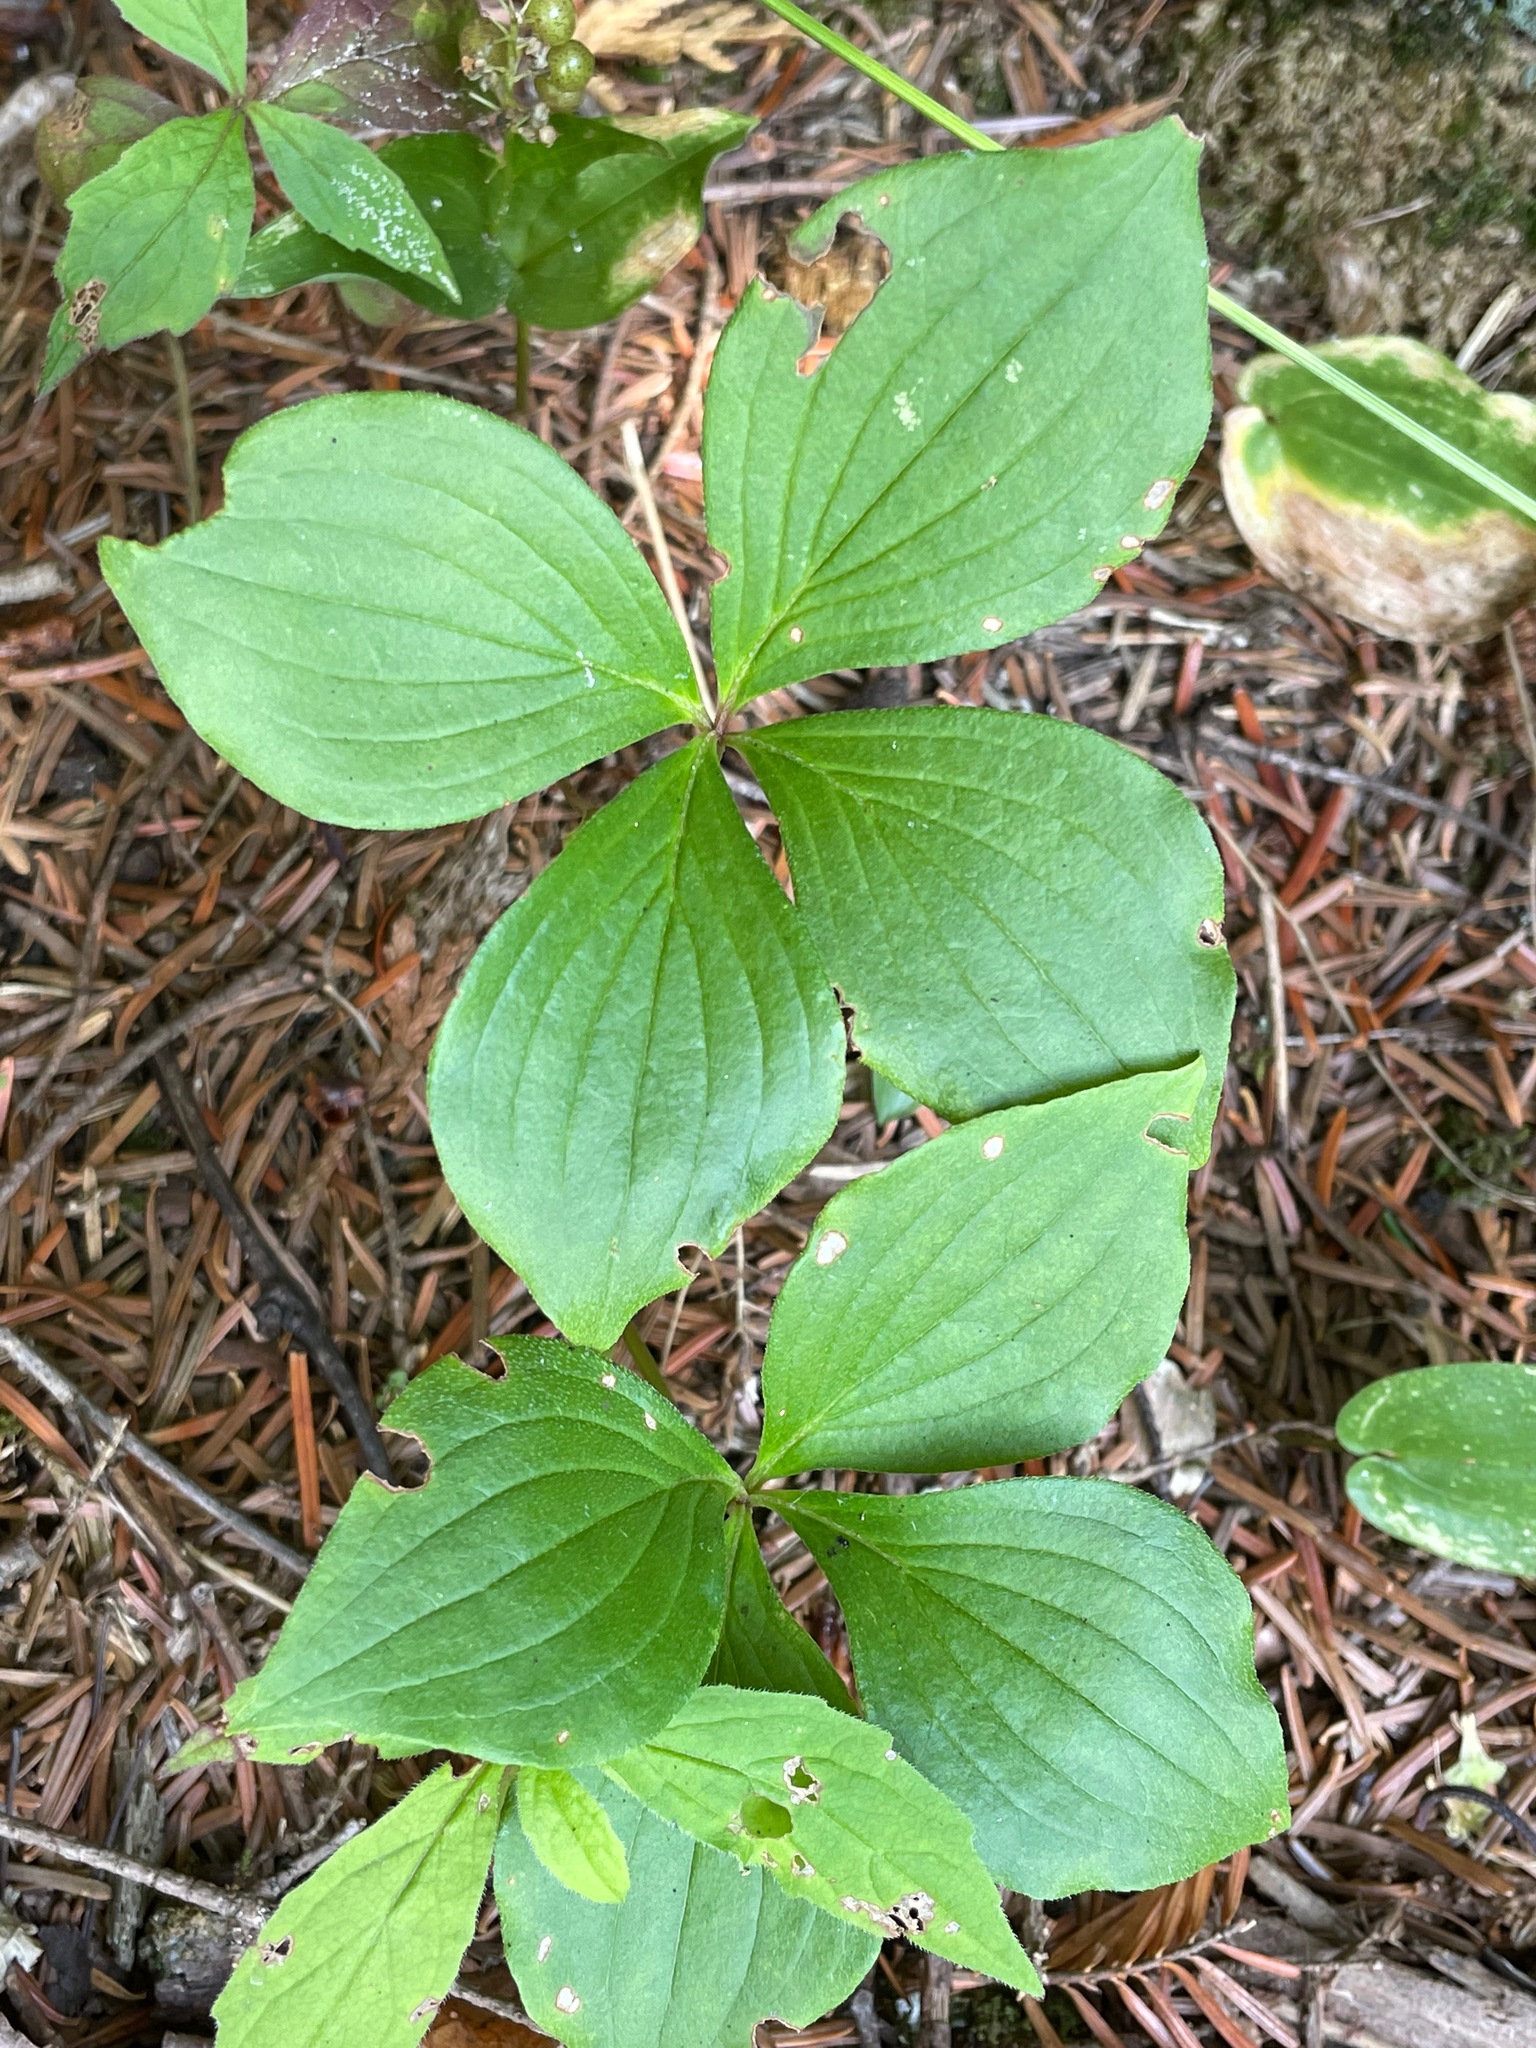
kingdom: Plantae
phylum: Tracheophyta
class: Magnoliopsida
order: Cornales
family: Cornaceae
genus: Cornus
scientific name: Cornus canadensis
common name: Creeping dogwood
